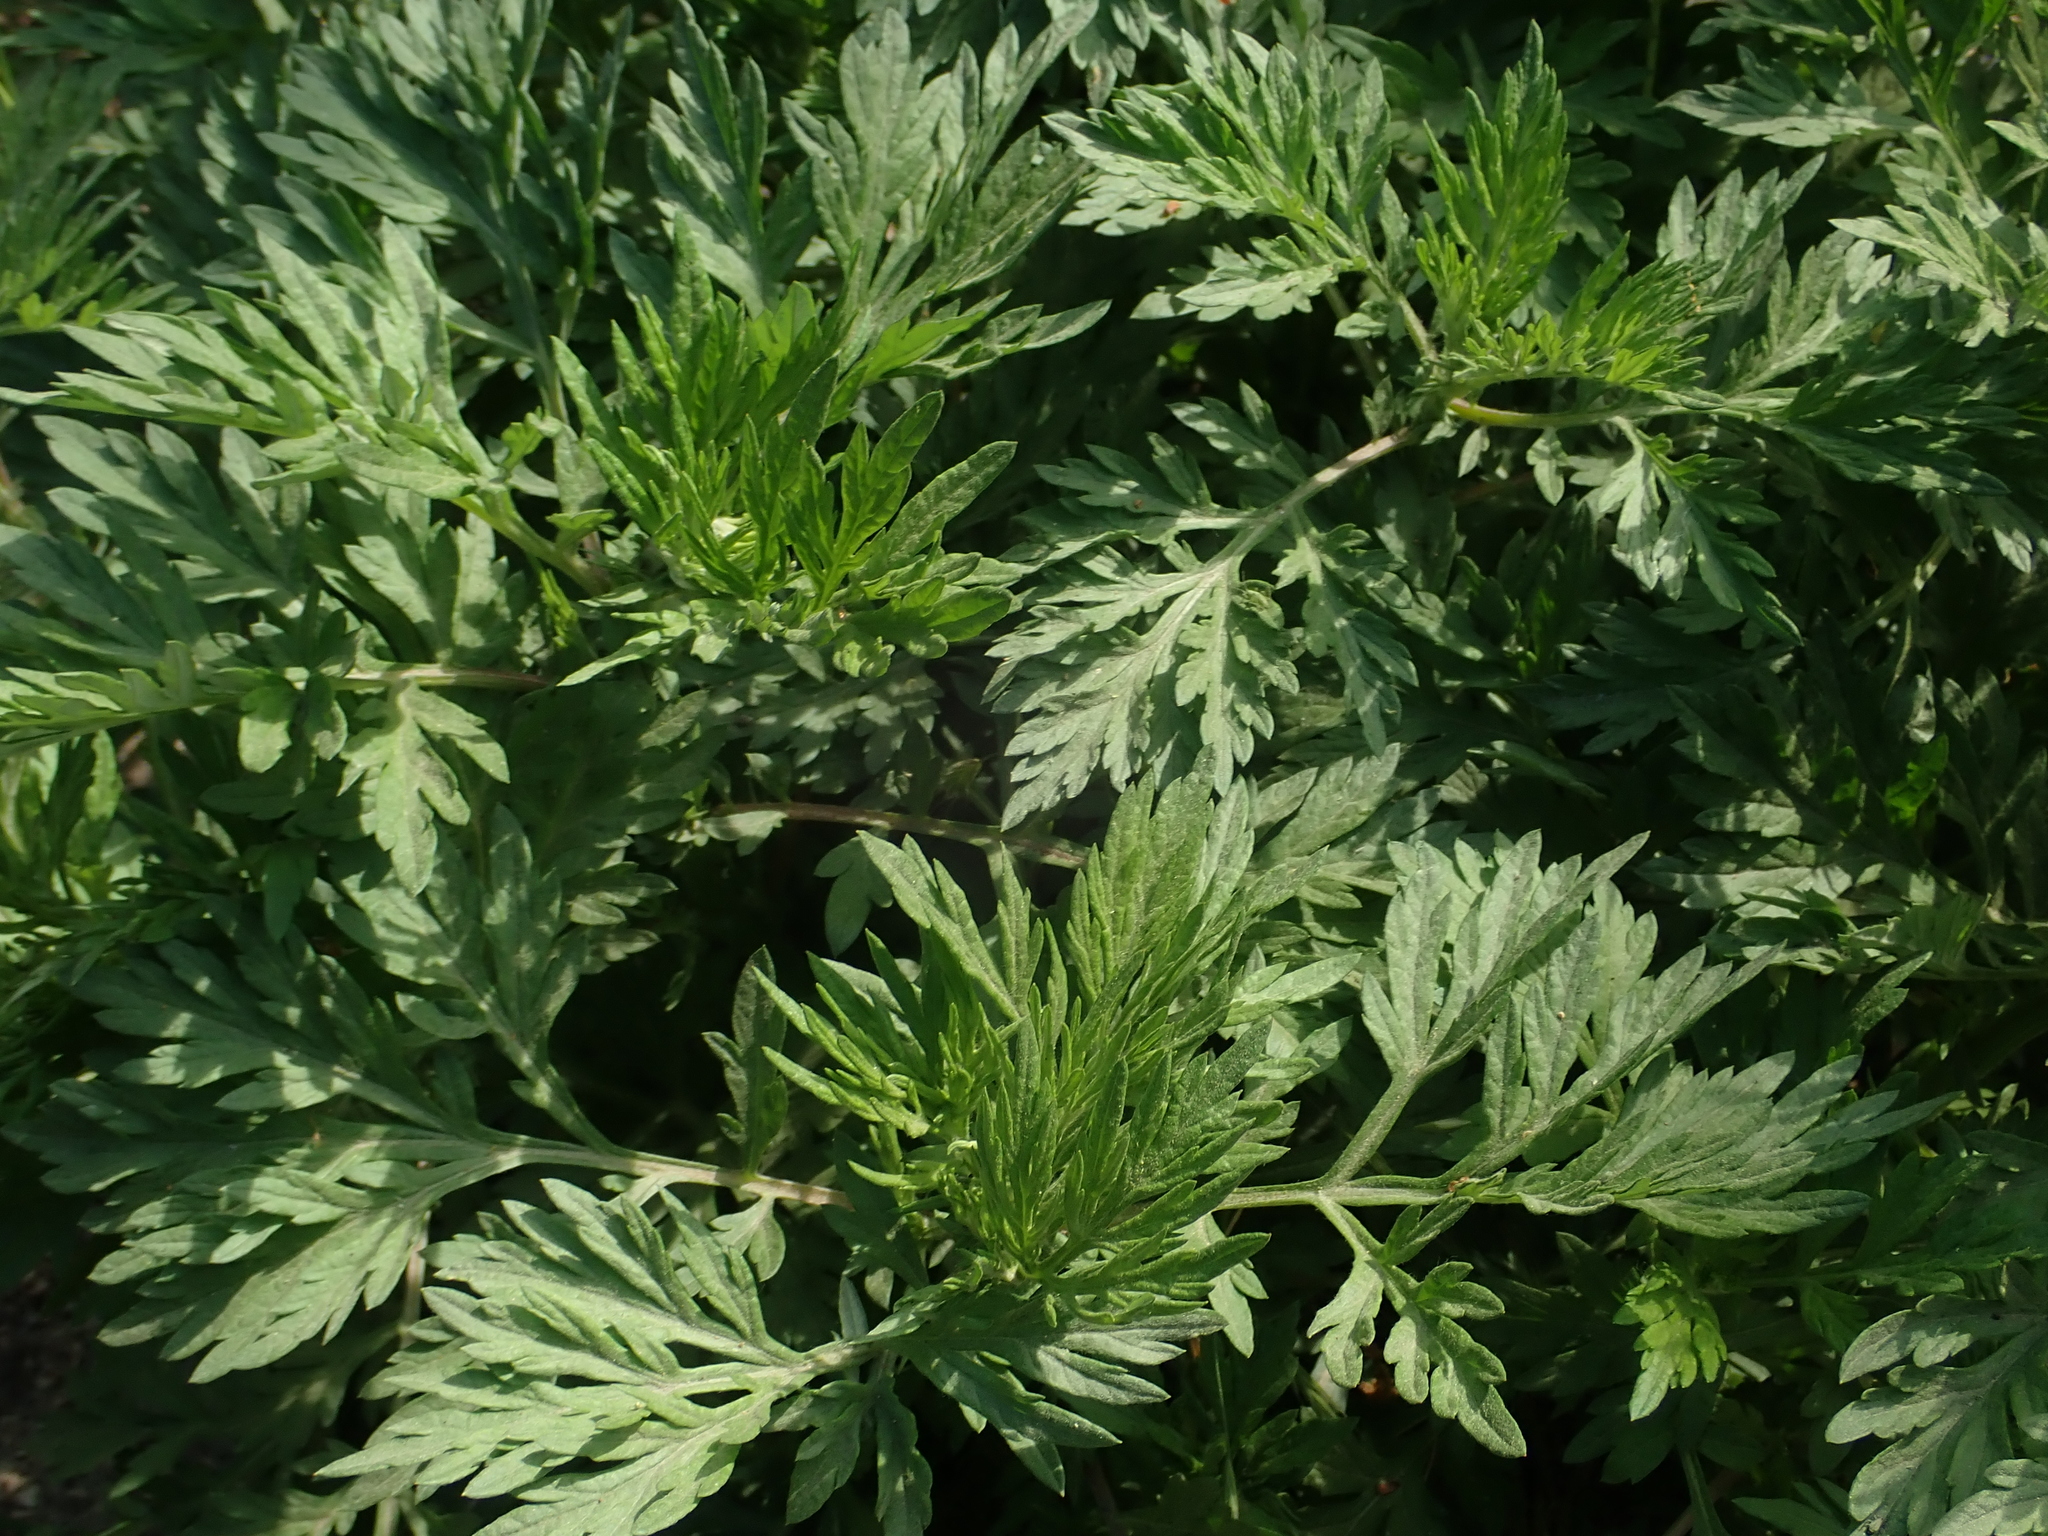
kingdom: Plantae
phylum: Tracheophyta
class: Magnoliopsida
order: Asterales
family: Asteraceae
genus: Artemisia
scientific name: Artemisia vulgaris
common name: Mugwort
